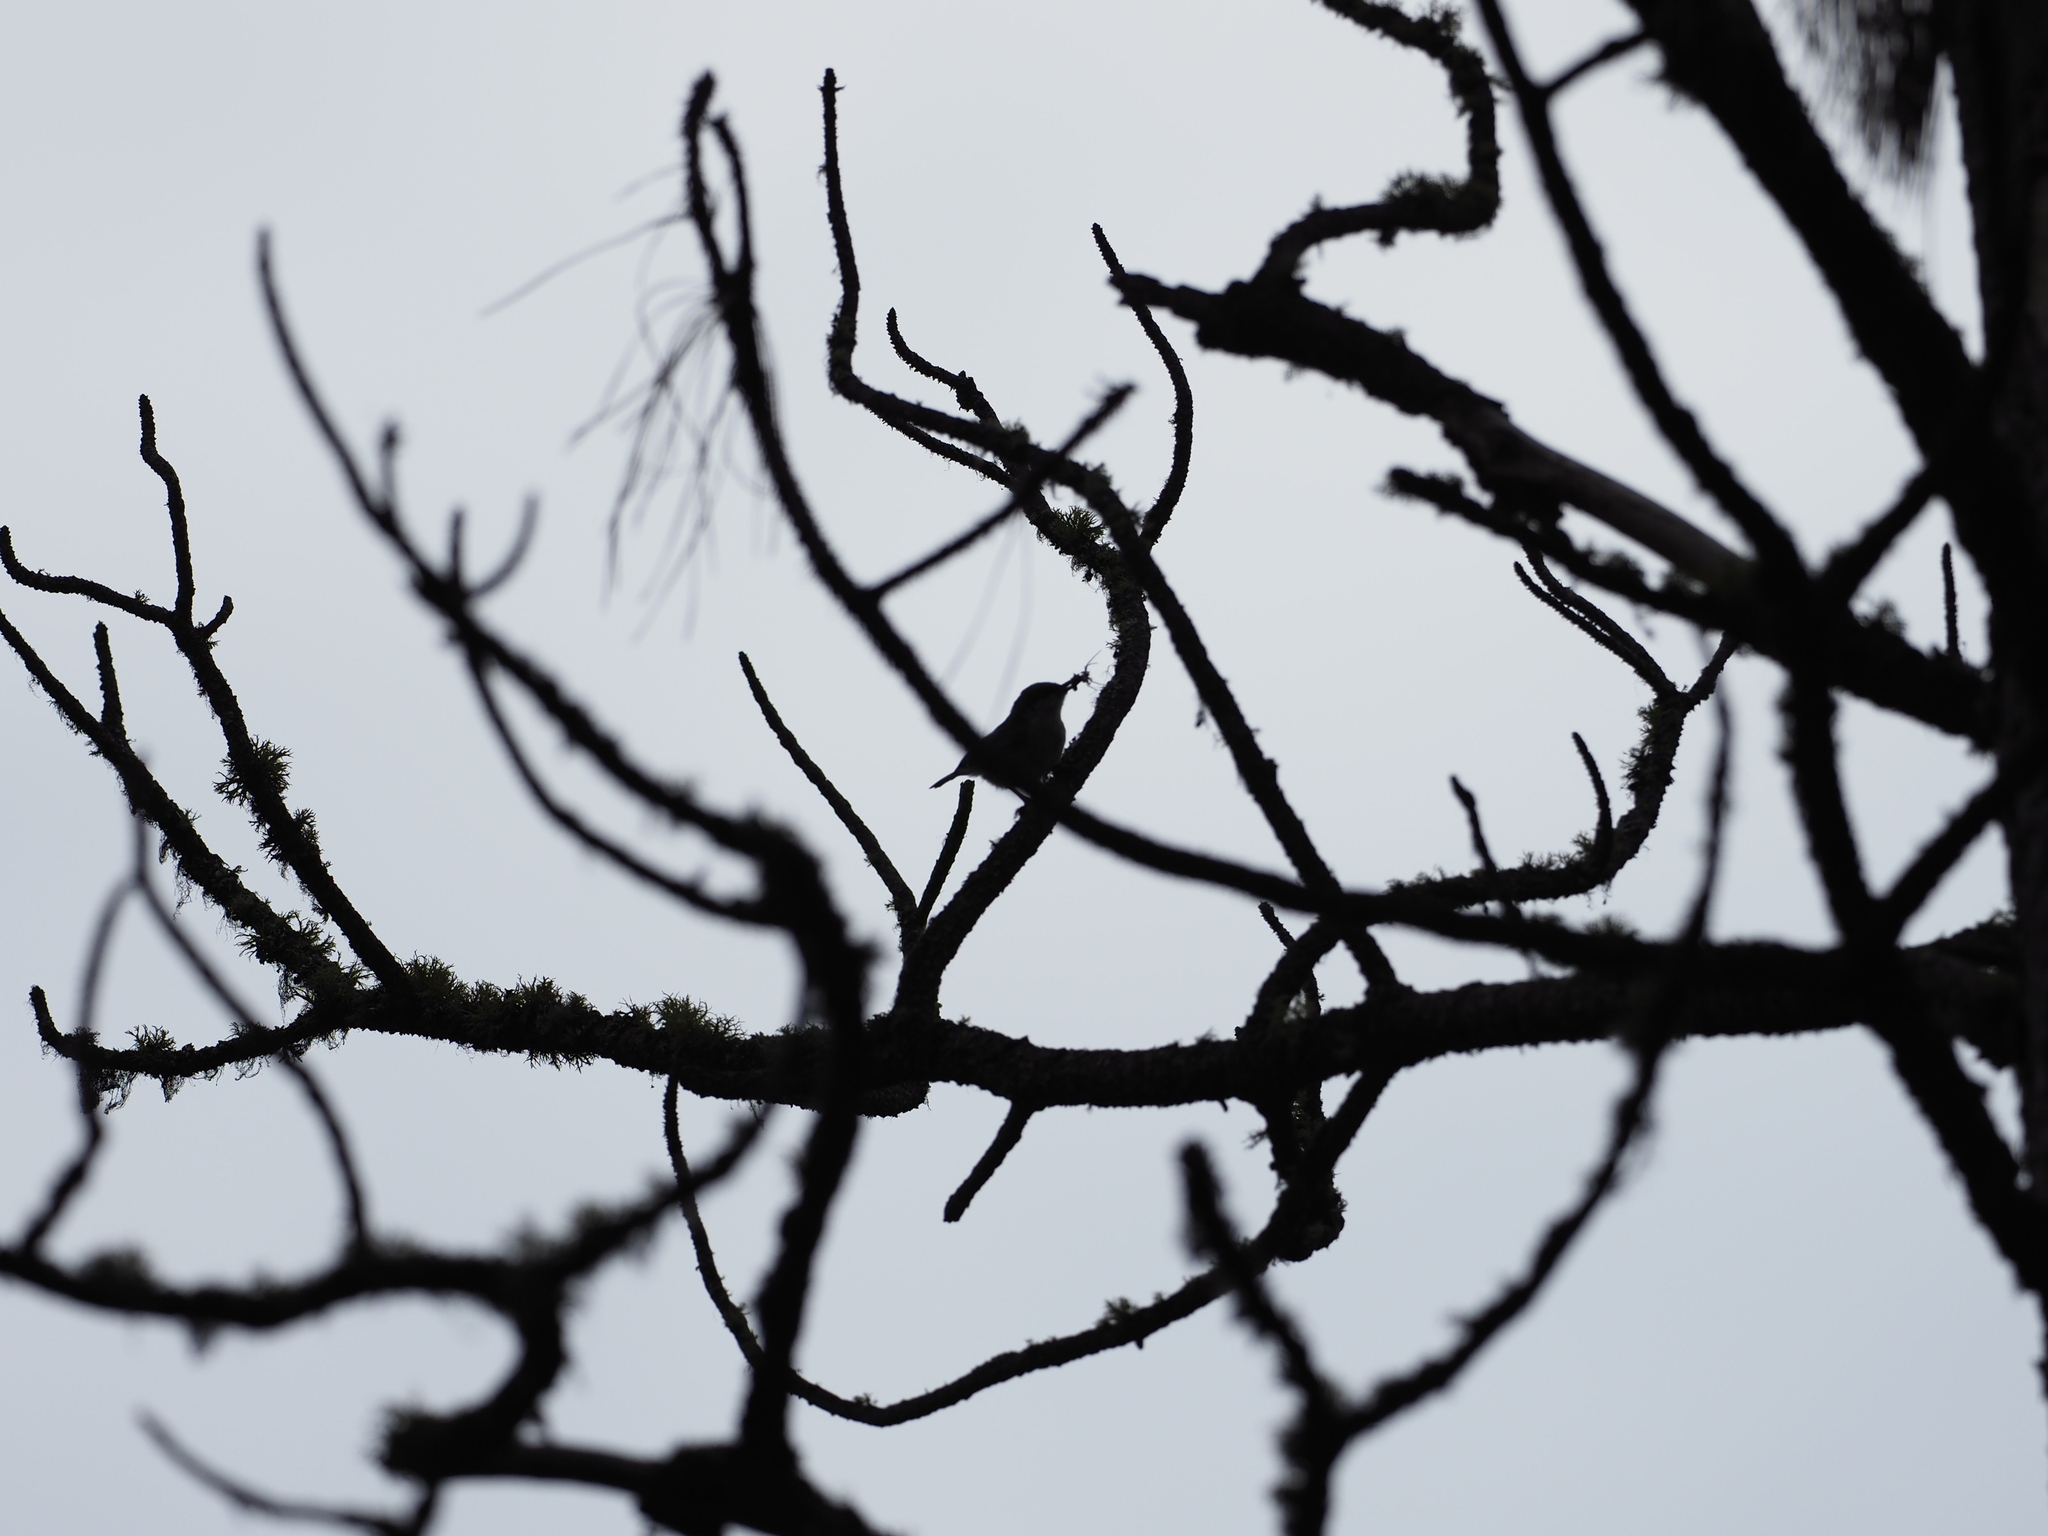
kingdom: Animalia
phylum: Chordata
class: Aves
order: Passeriformes
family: Sittidae
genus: Sitta
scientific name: Sitta pygmaea
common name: Pygmy nuthatch
